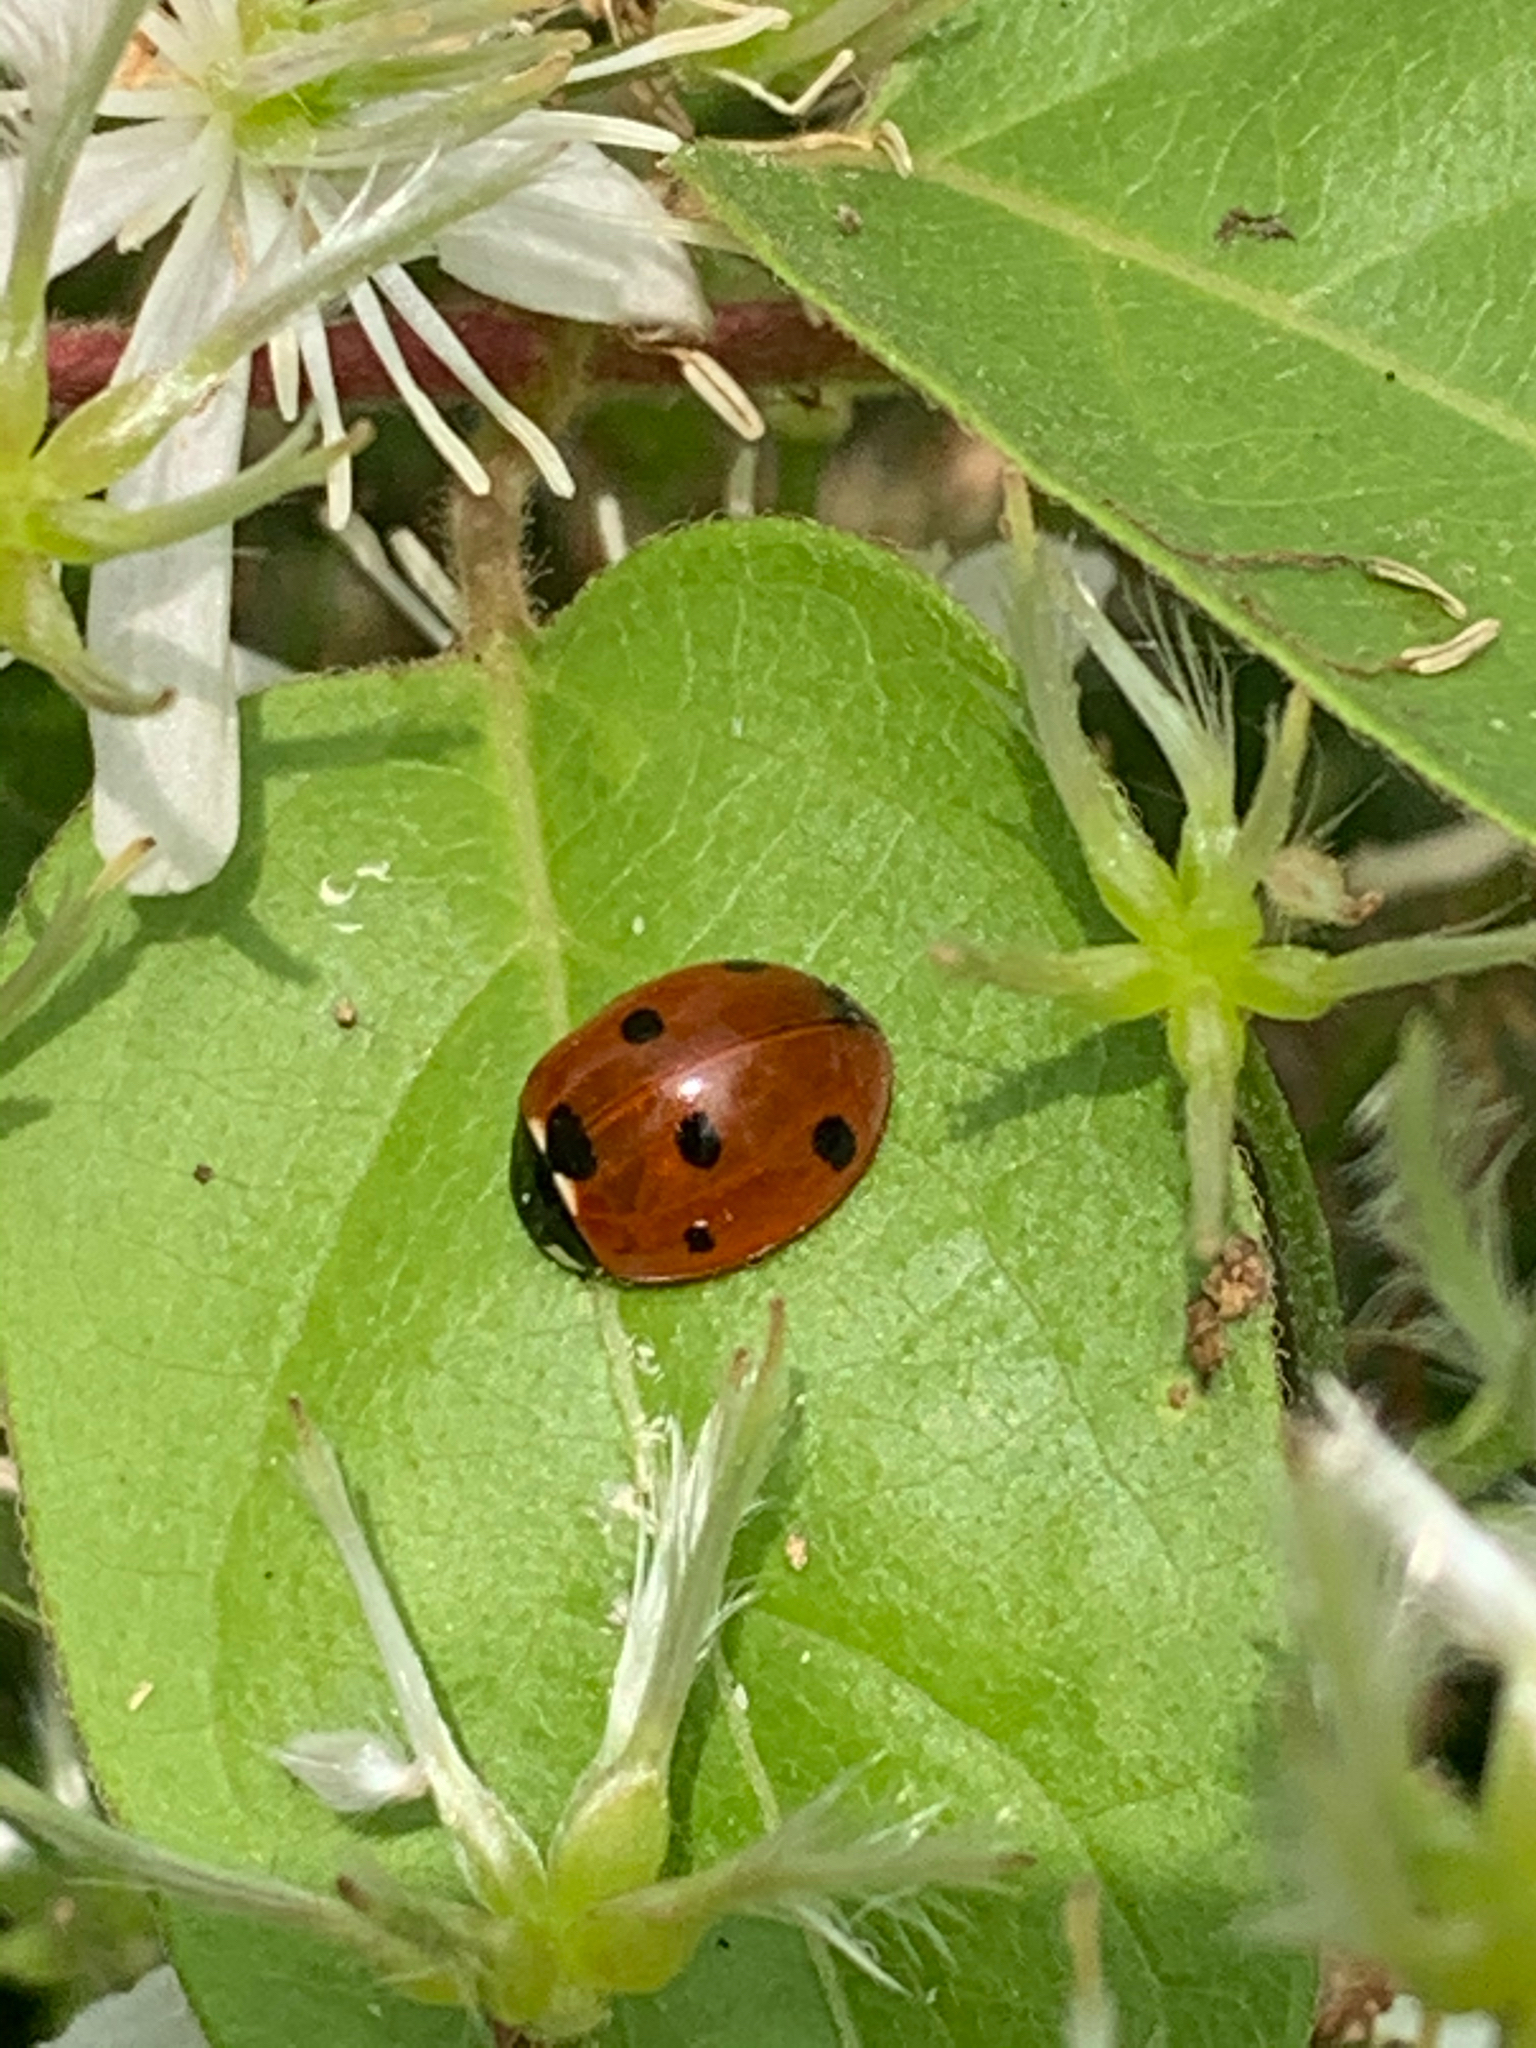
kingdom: Animalia
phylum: Arthropoda
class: Insecta
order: Coleoptera
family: Coccinellidae
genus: Coccinella
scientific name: Coccinella septempunctata
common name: Sevenspotted lady beetle
